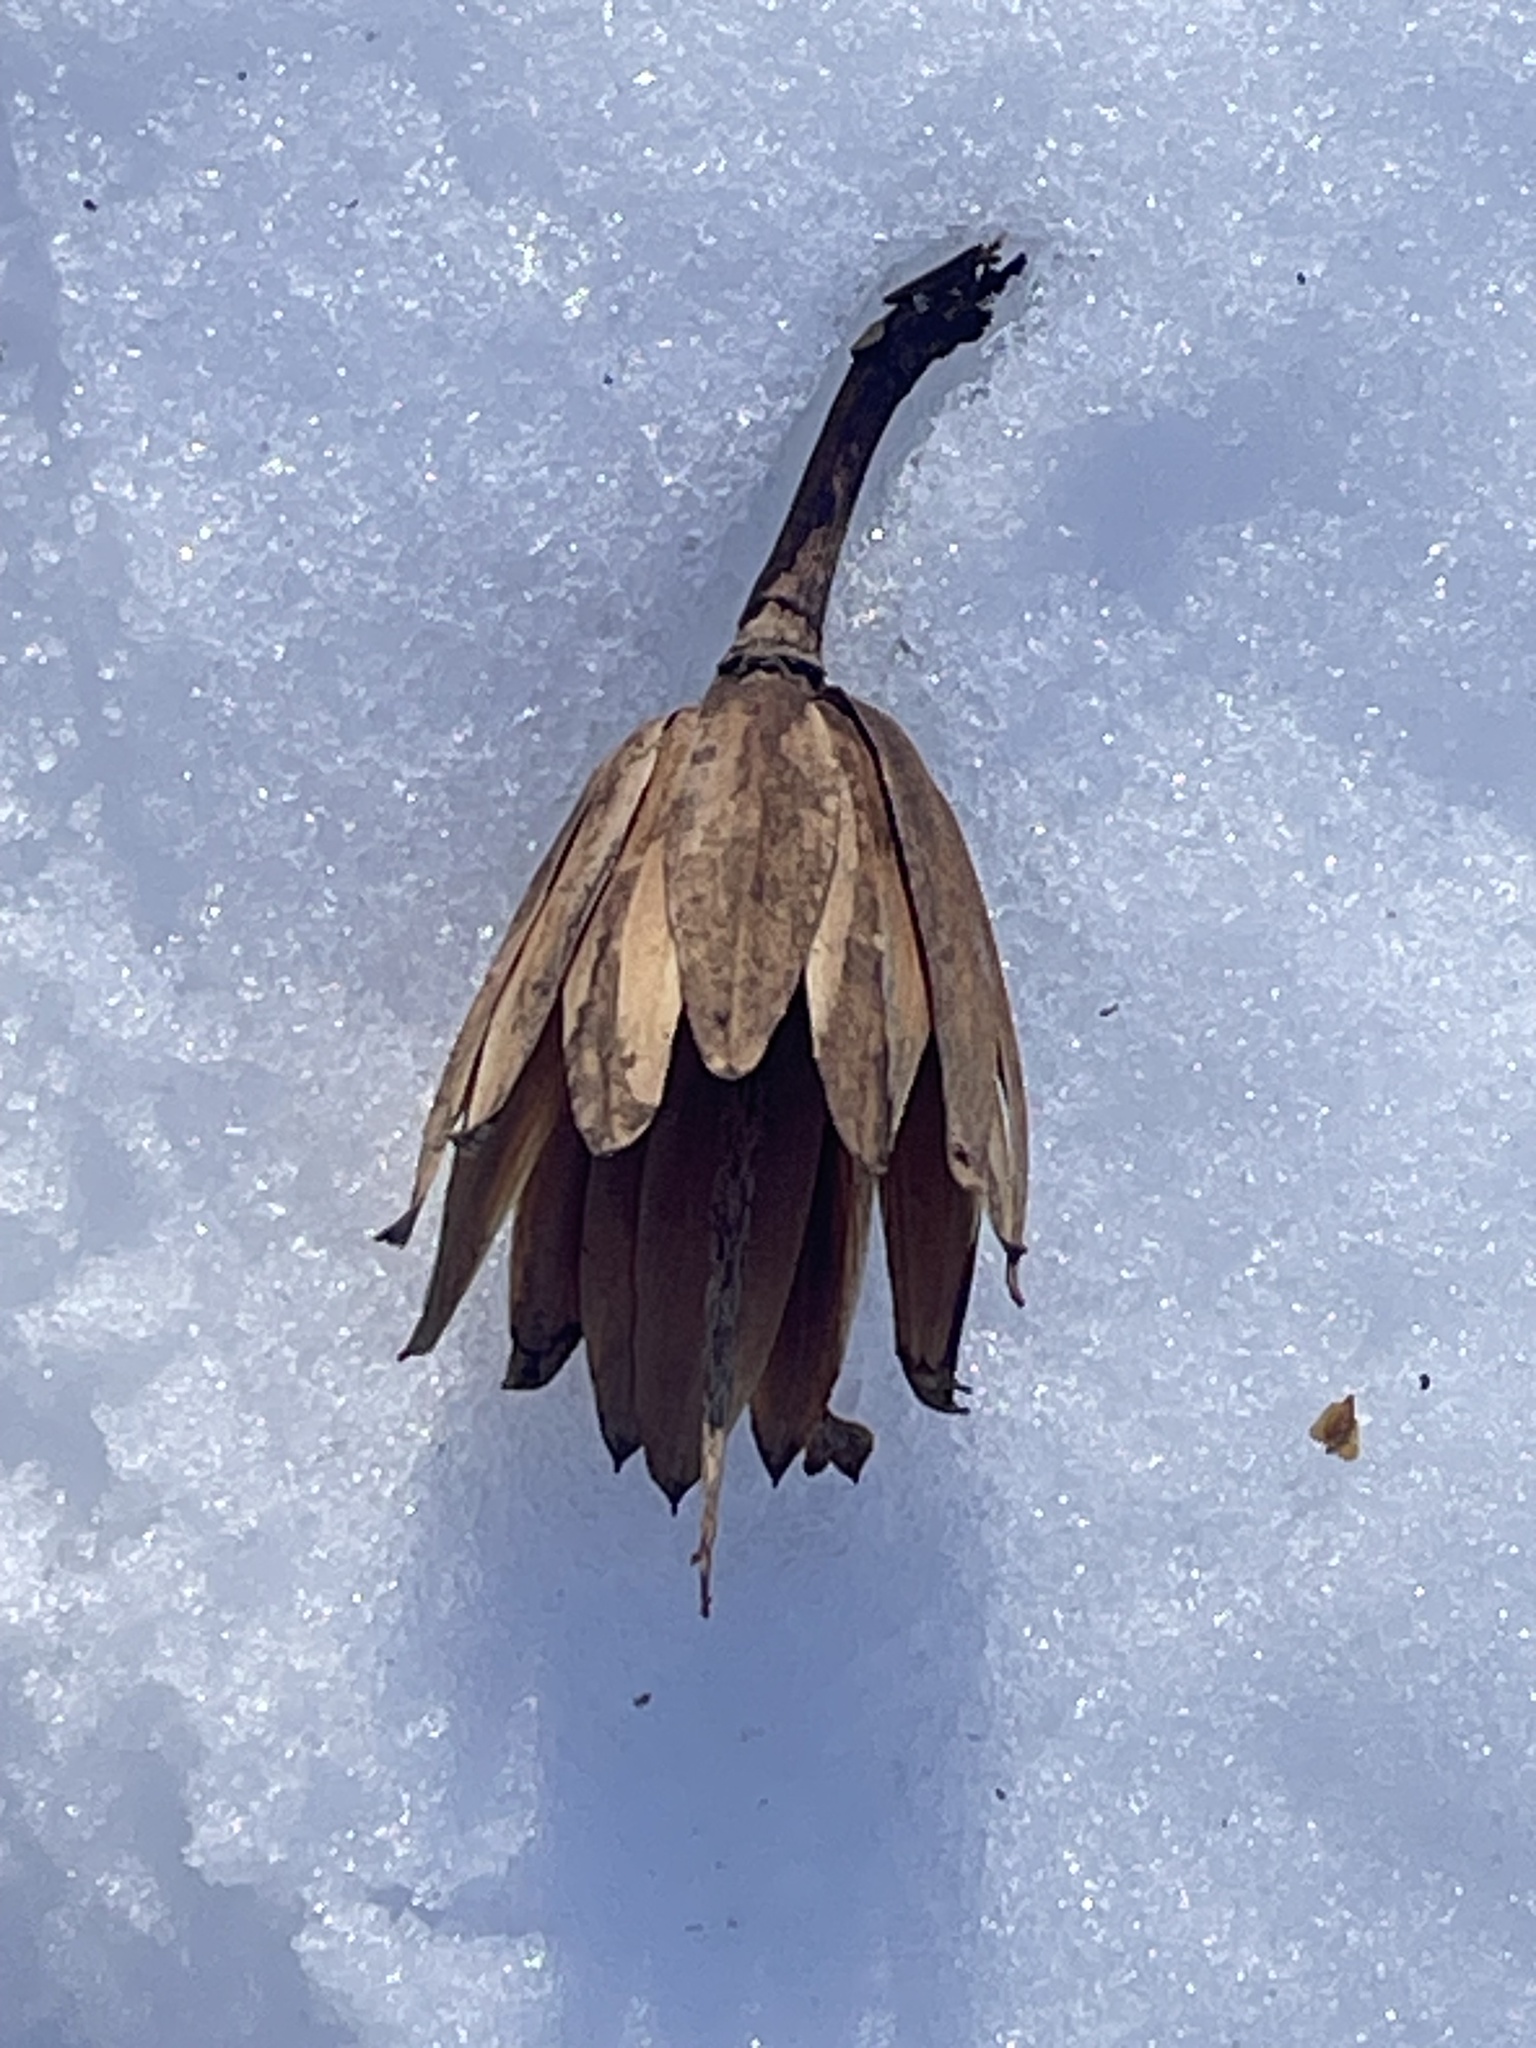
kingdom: Plantae
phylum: Tracheophyta
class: Magnoliopsida
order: Magnoliales
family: Magnoliaceae
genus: Liriodendron
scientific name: Liriodendron tulipifera
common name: Tulip tree
